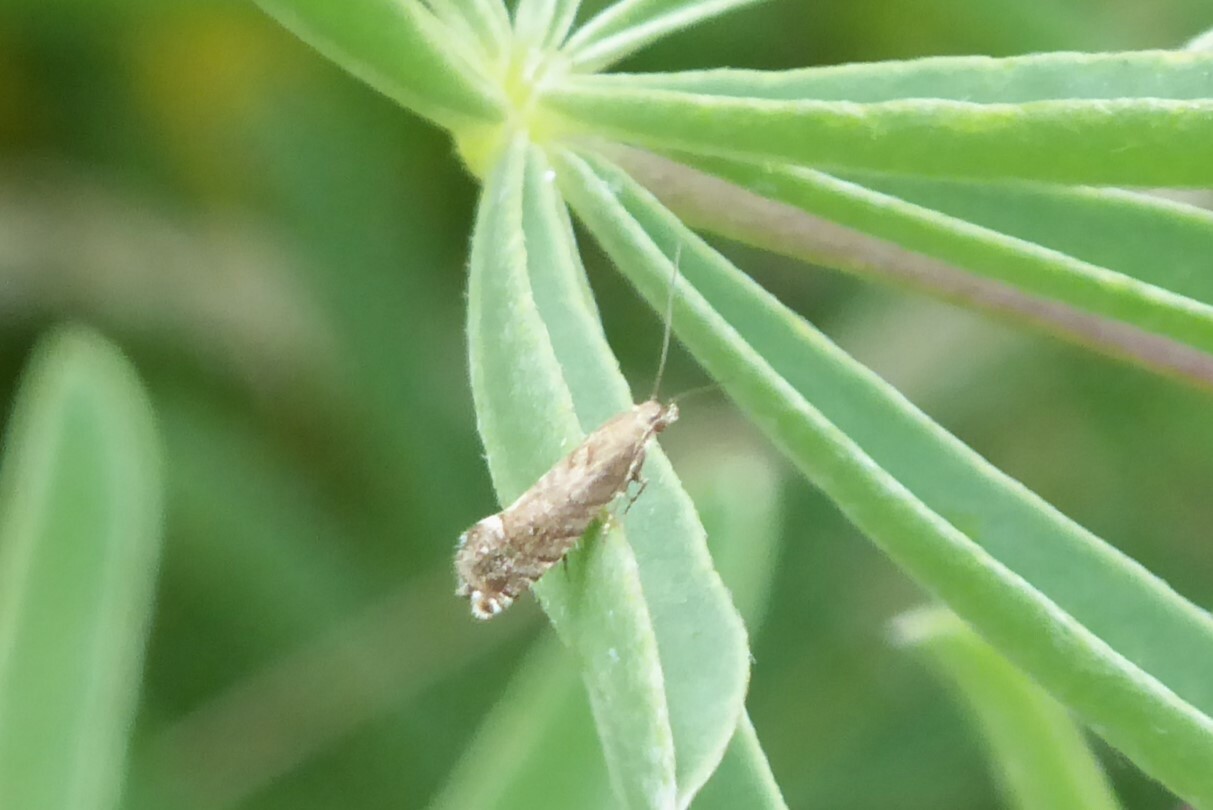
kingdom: Animalia
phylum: Arthropoda
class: Insecta
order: Lepidoptera
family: Glyphipterigidae
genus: Glyphipterix
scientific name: Glyphipterix nephoptera
